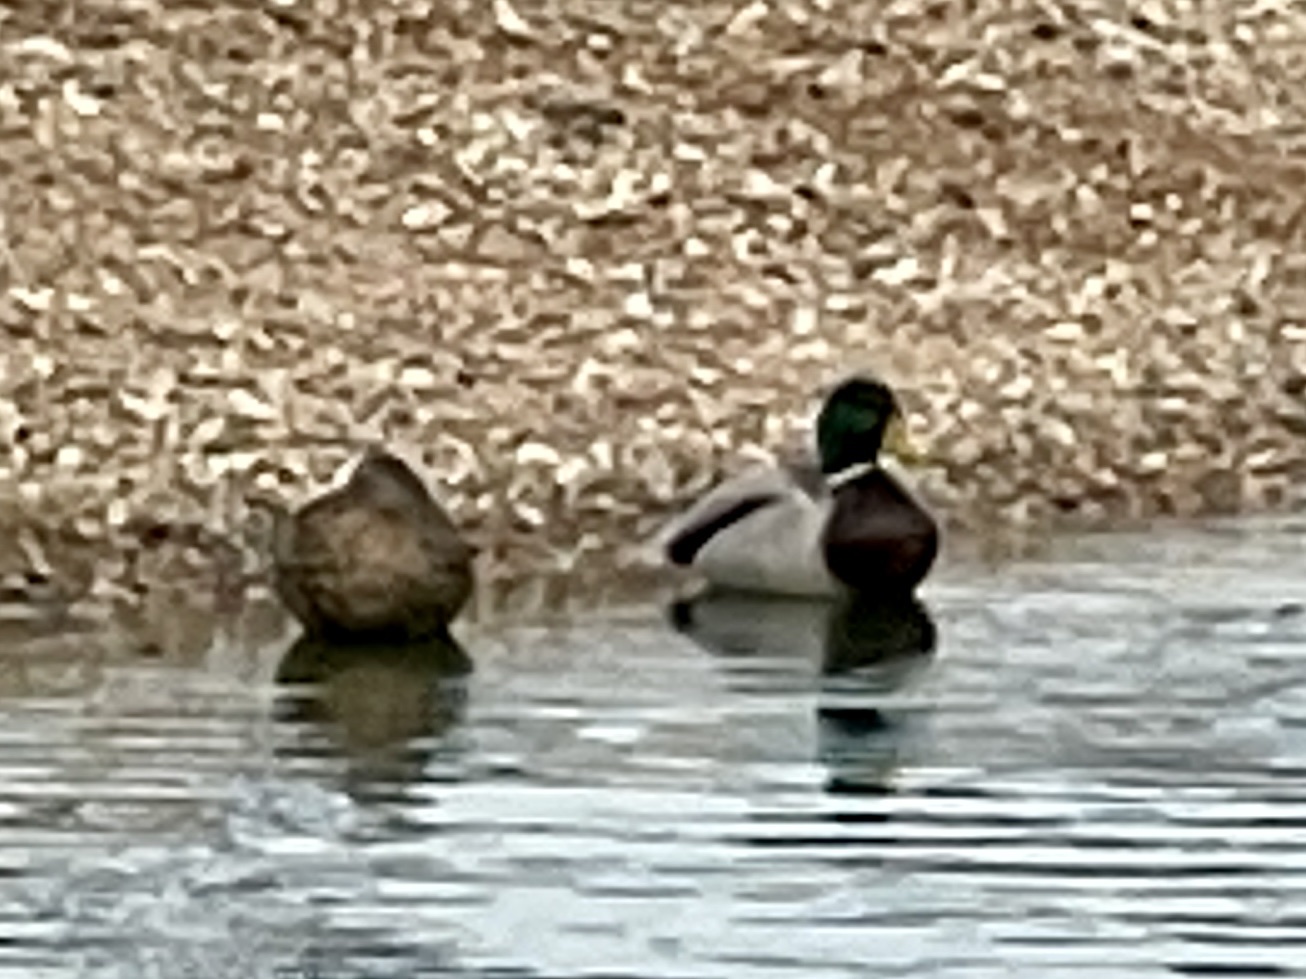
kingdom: Animalia
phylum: Chordata
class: Aves
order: Anseriformes
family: Anatidae
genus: Anas
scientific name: Anas platyrhynchos
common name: Mallard
